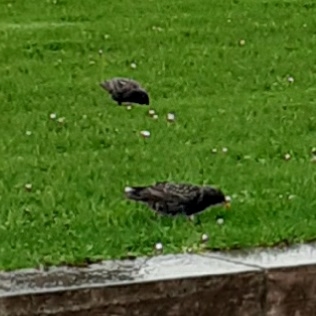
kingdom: Animalia
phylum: Chordata
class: Aves
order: Passeriformes
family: Sturnidae
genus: Sturnus
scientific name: Sturnus vulgaris
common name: Common starling
